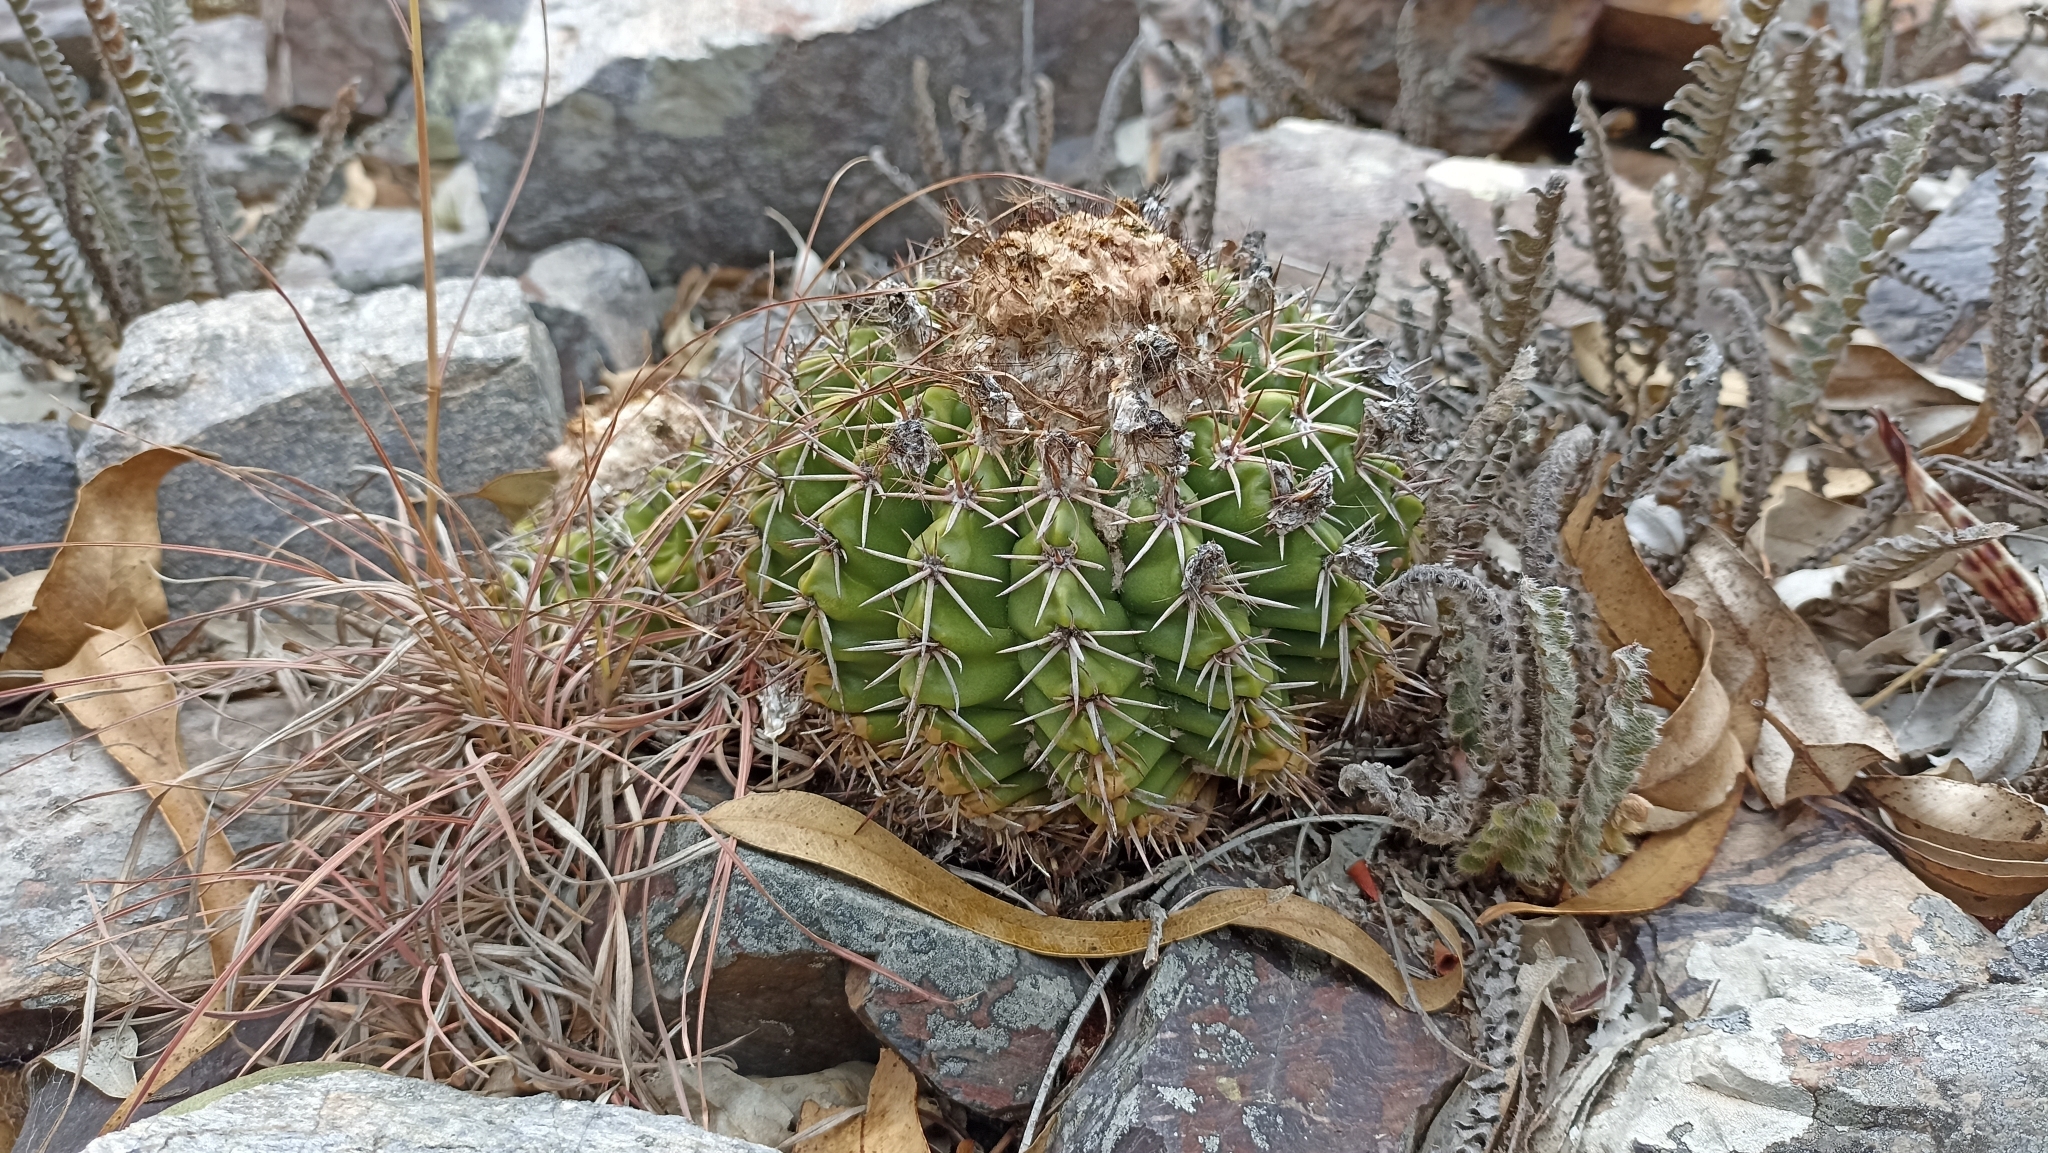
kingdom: Plantae
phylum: Tracheophyta
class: Magnoliopsida
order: Caryophyllales
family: Cactaceae
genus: Parodia
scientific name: Parodia erinacea
